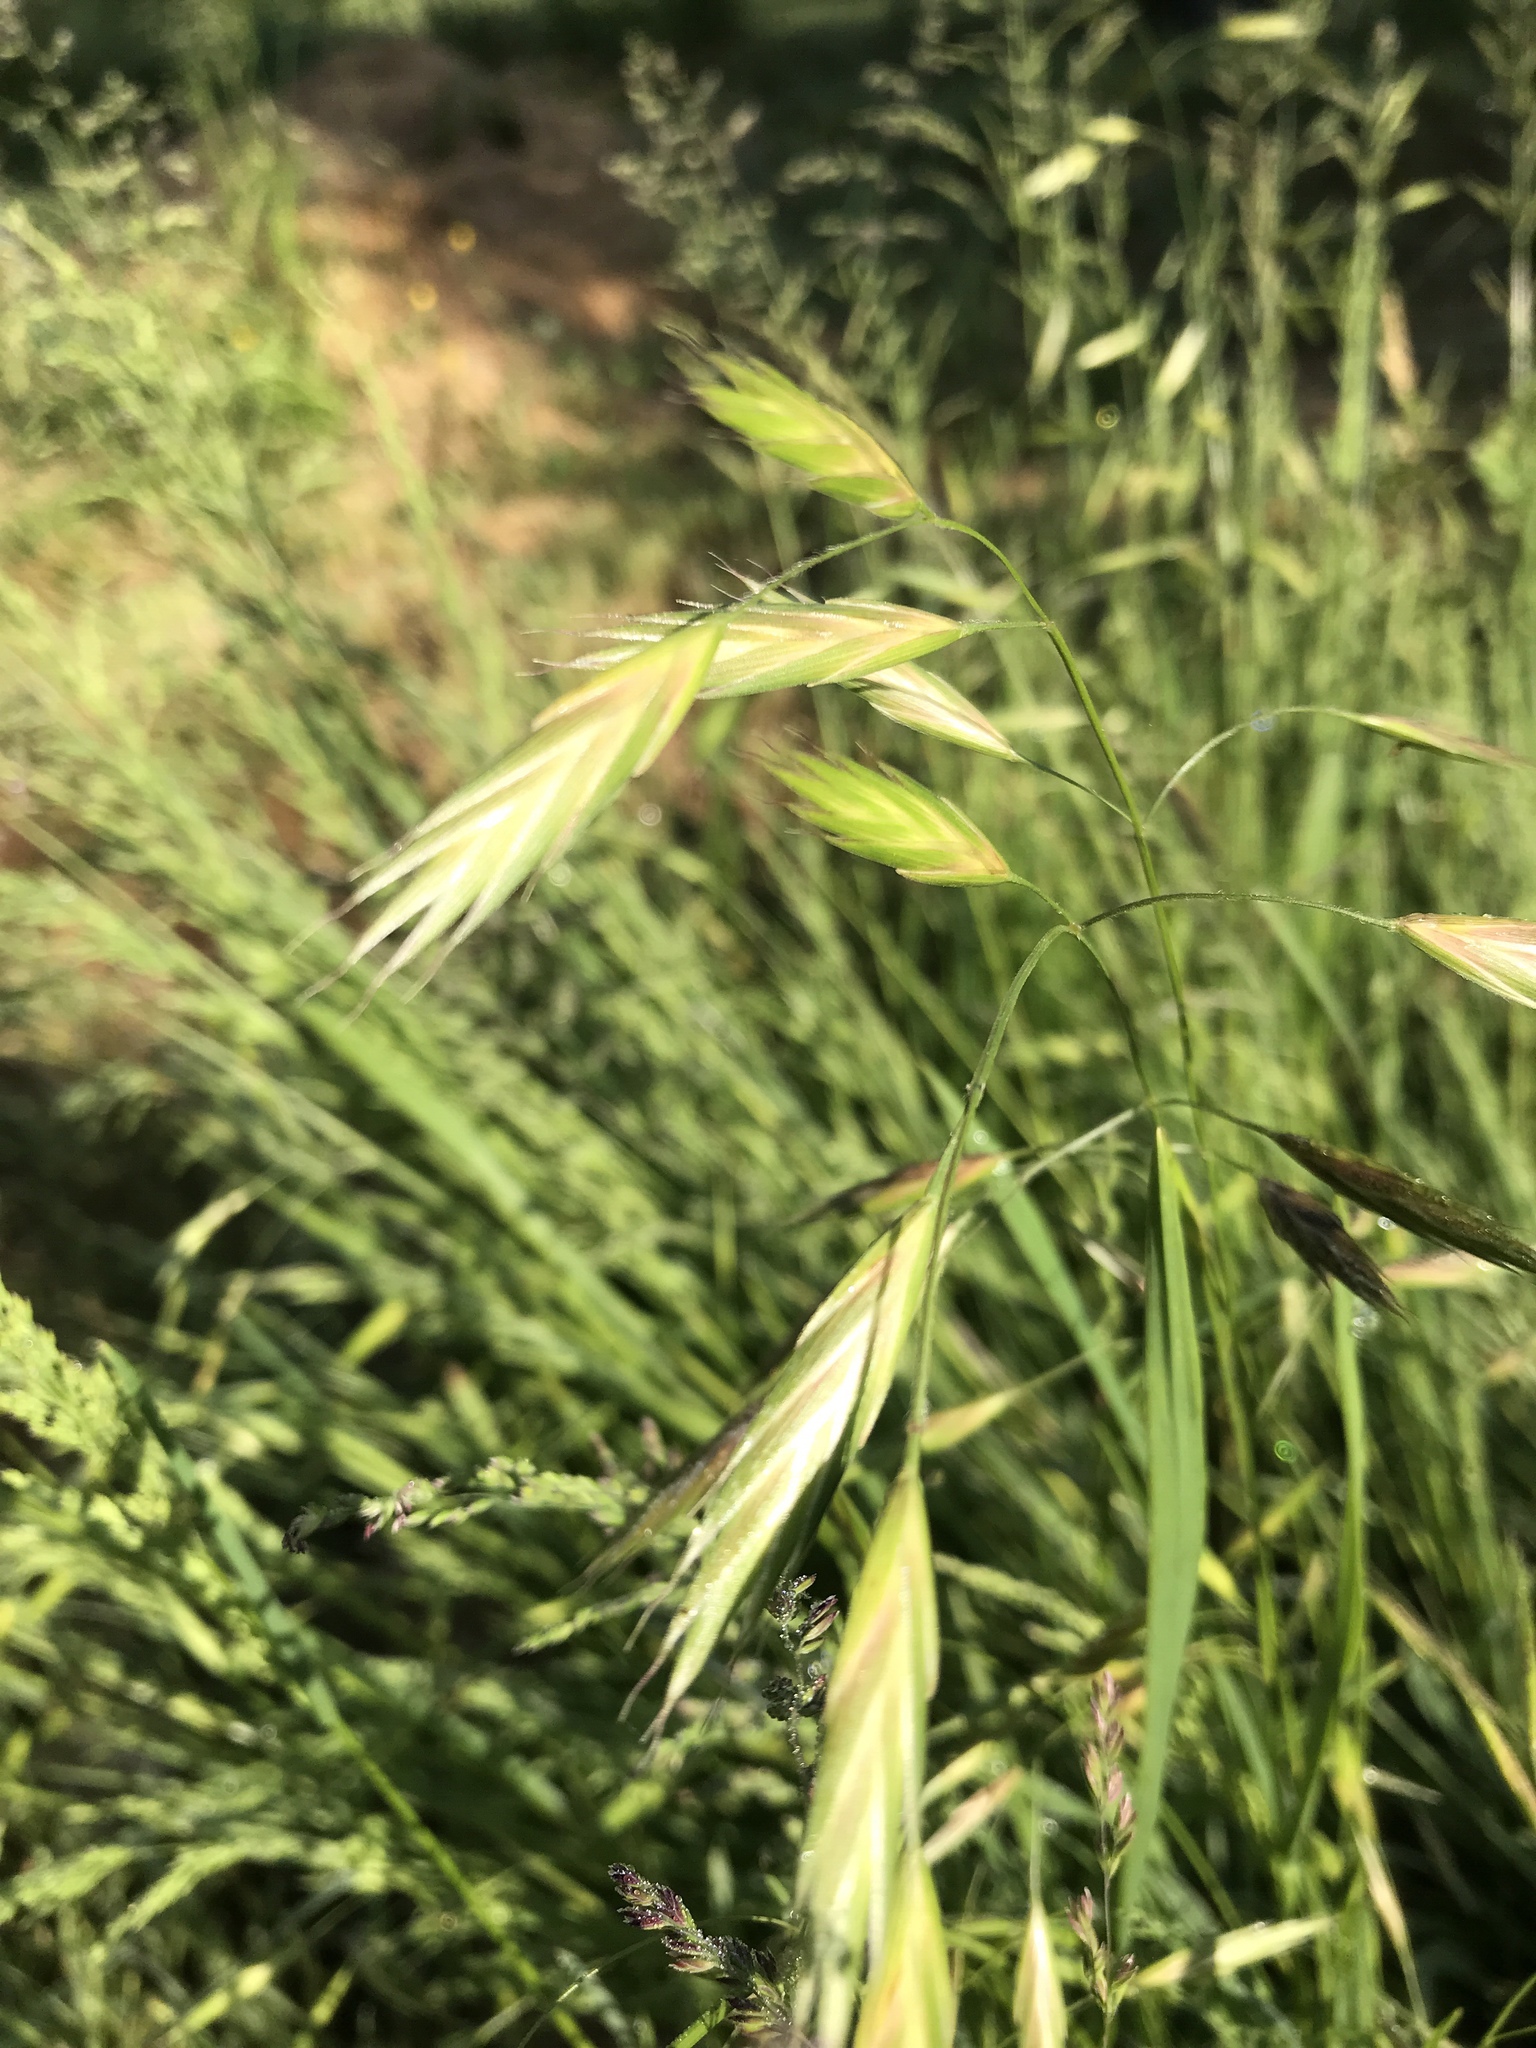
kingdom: Plantae
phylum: Tracheophyta
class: Liliopsida
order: Poales
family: Poaceae
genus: Bromus
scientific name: Bromus catharticus
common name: Rescuegrass
